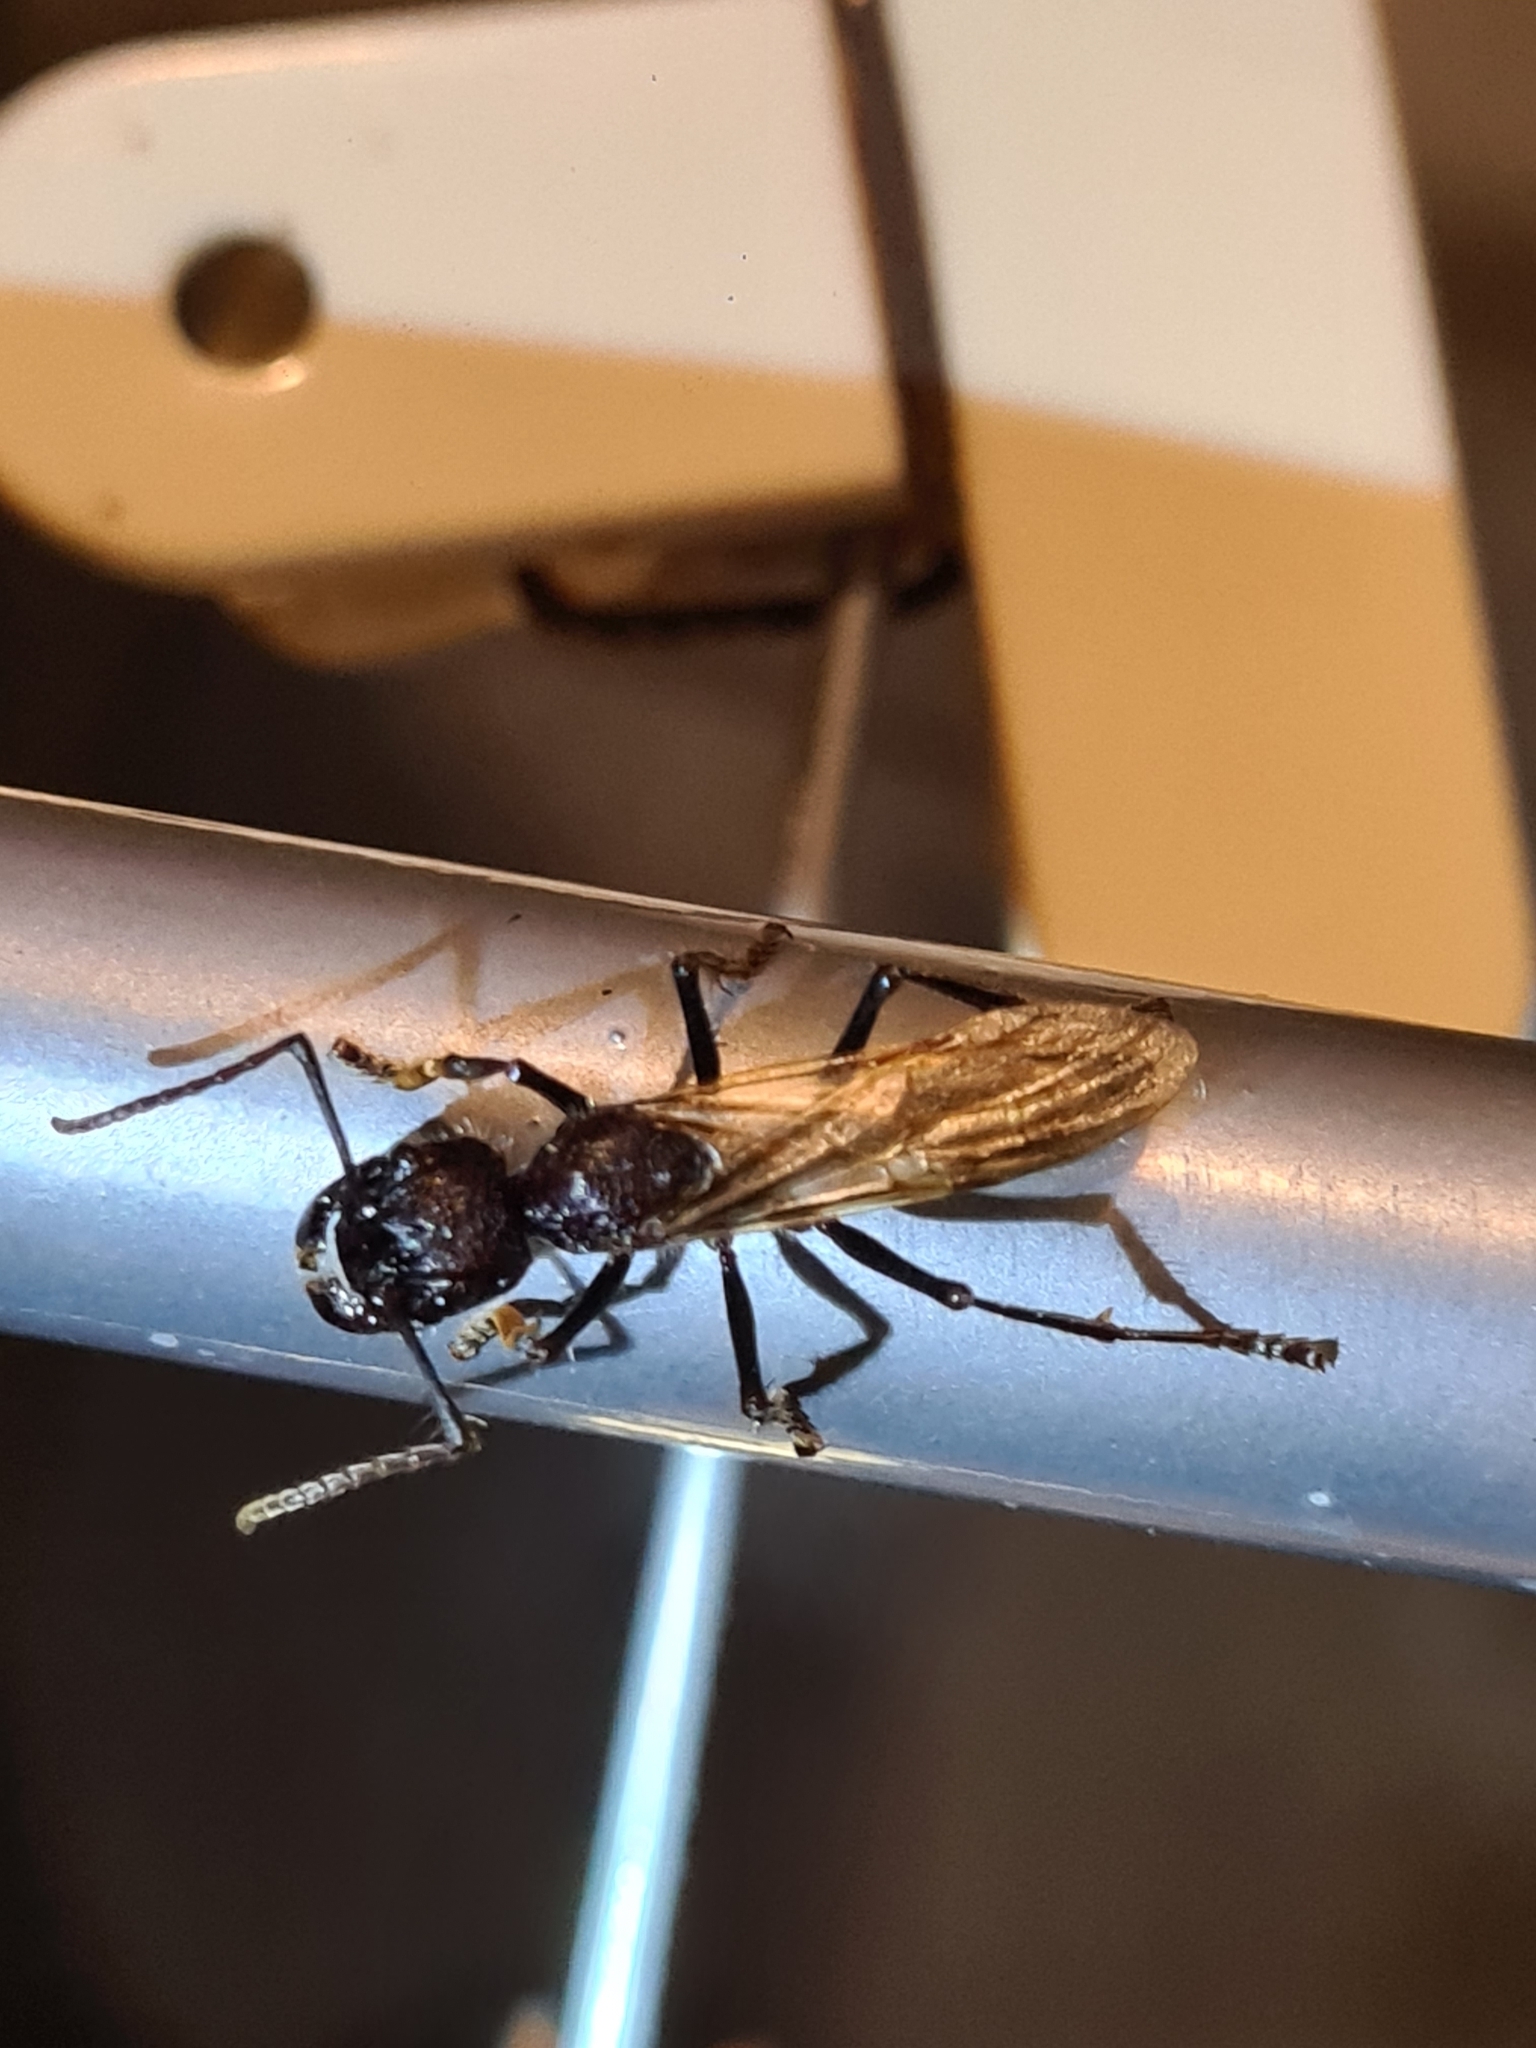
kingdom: Animalia
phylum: Arthropoda
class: Insecta
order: Hymenoptera
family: Formicidae
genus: Paraponera
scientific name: Paraponera clavata
